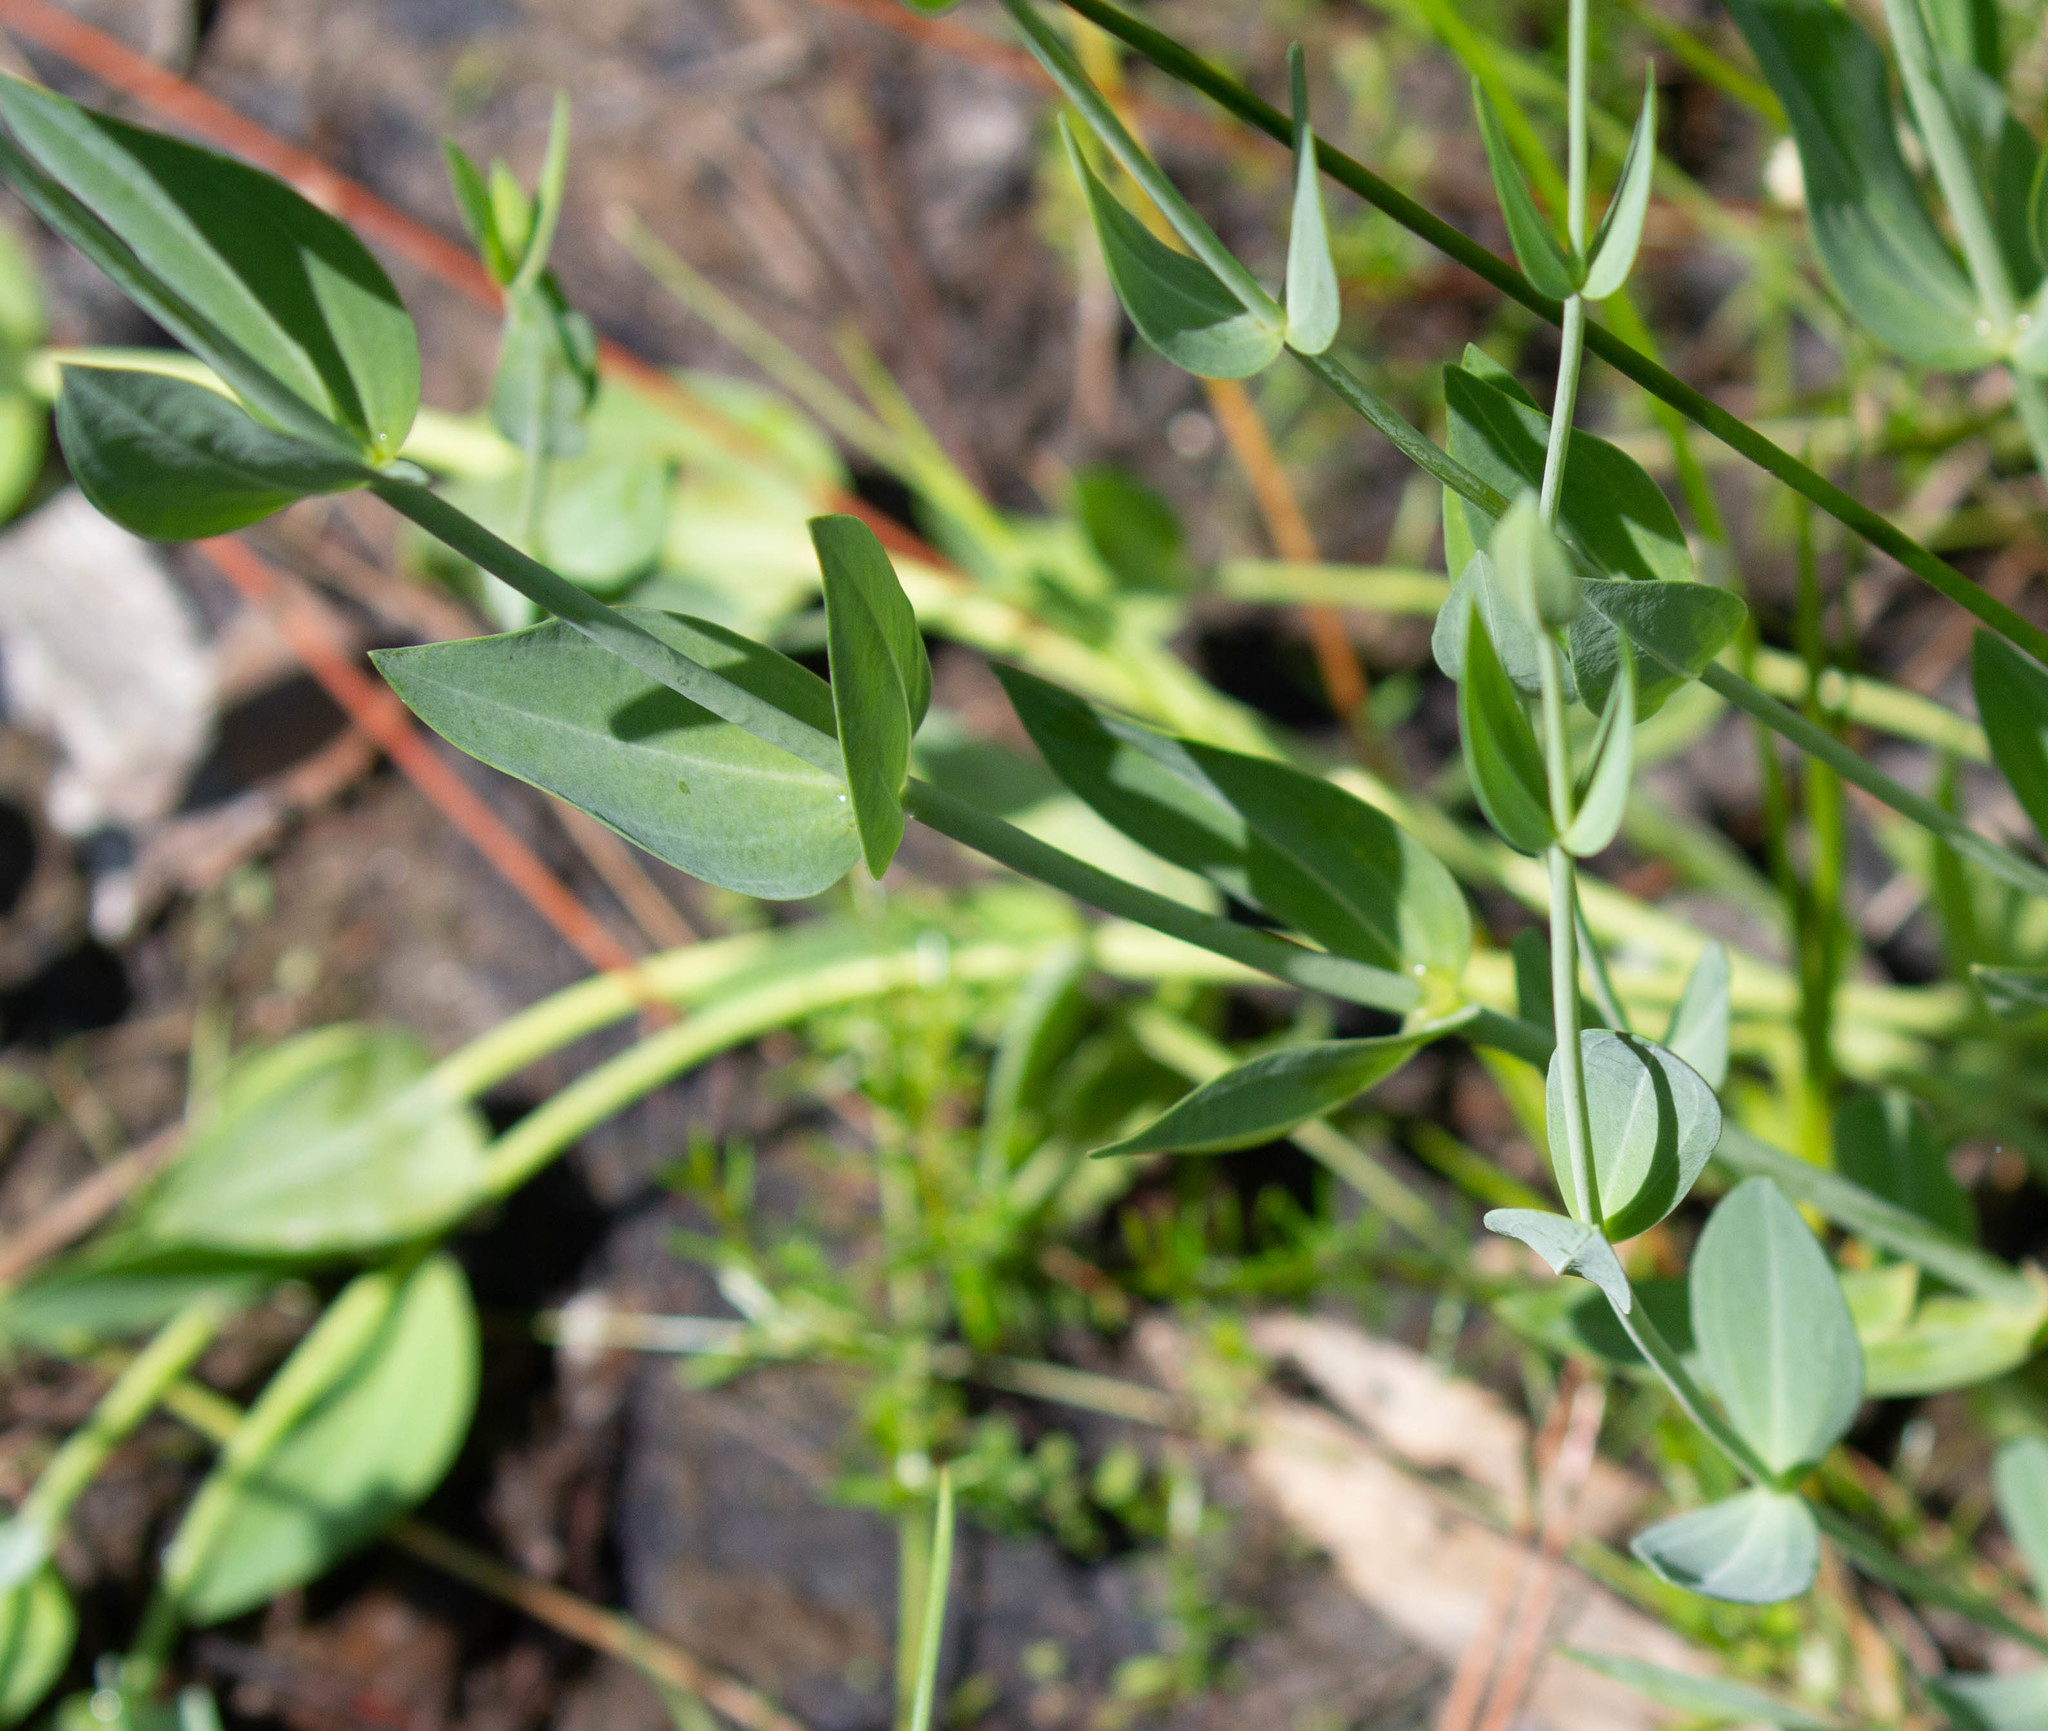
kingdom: Plantae
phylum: Tracheophyta
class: Magnoliopsida
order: Gentianales
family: Gentianaceae
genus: Eustoma
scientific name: Eustoma exaltatum
